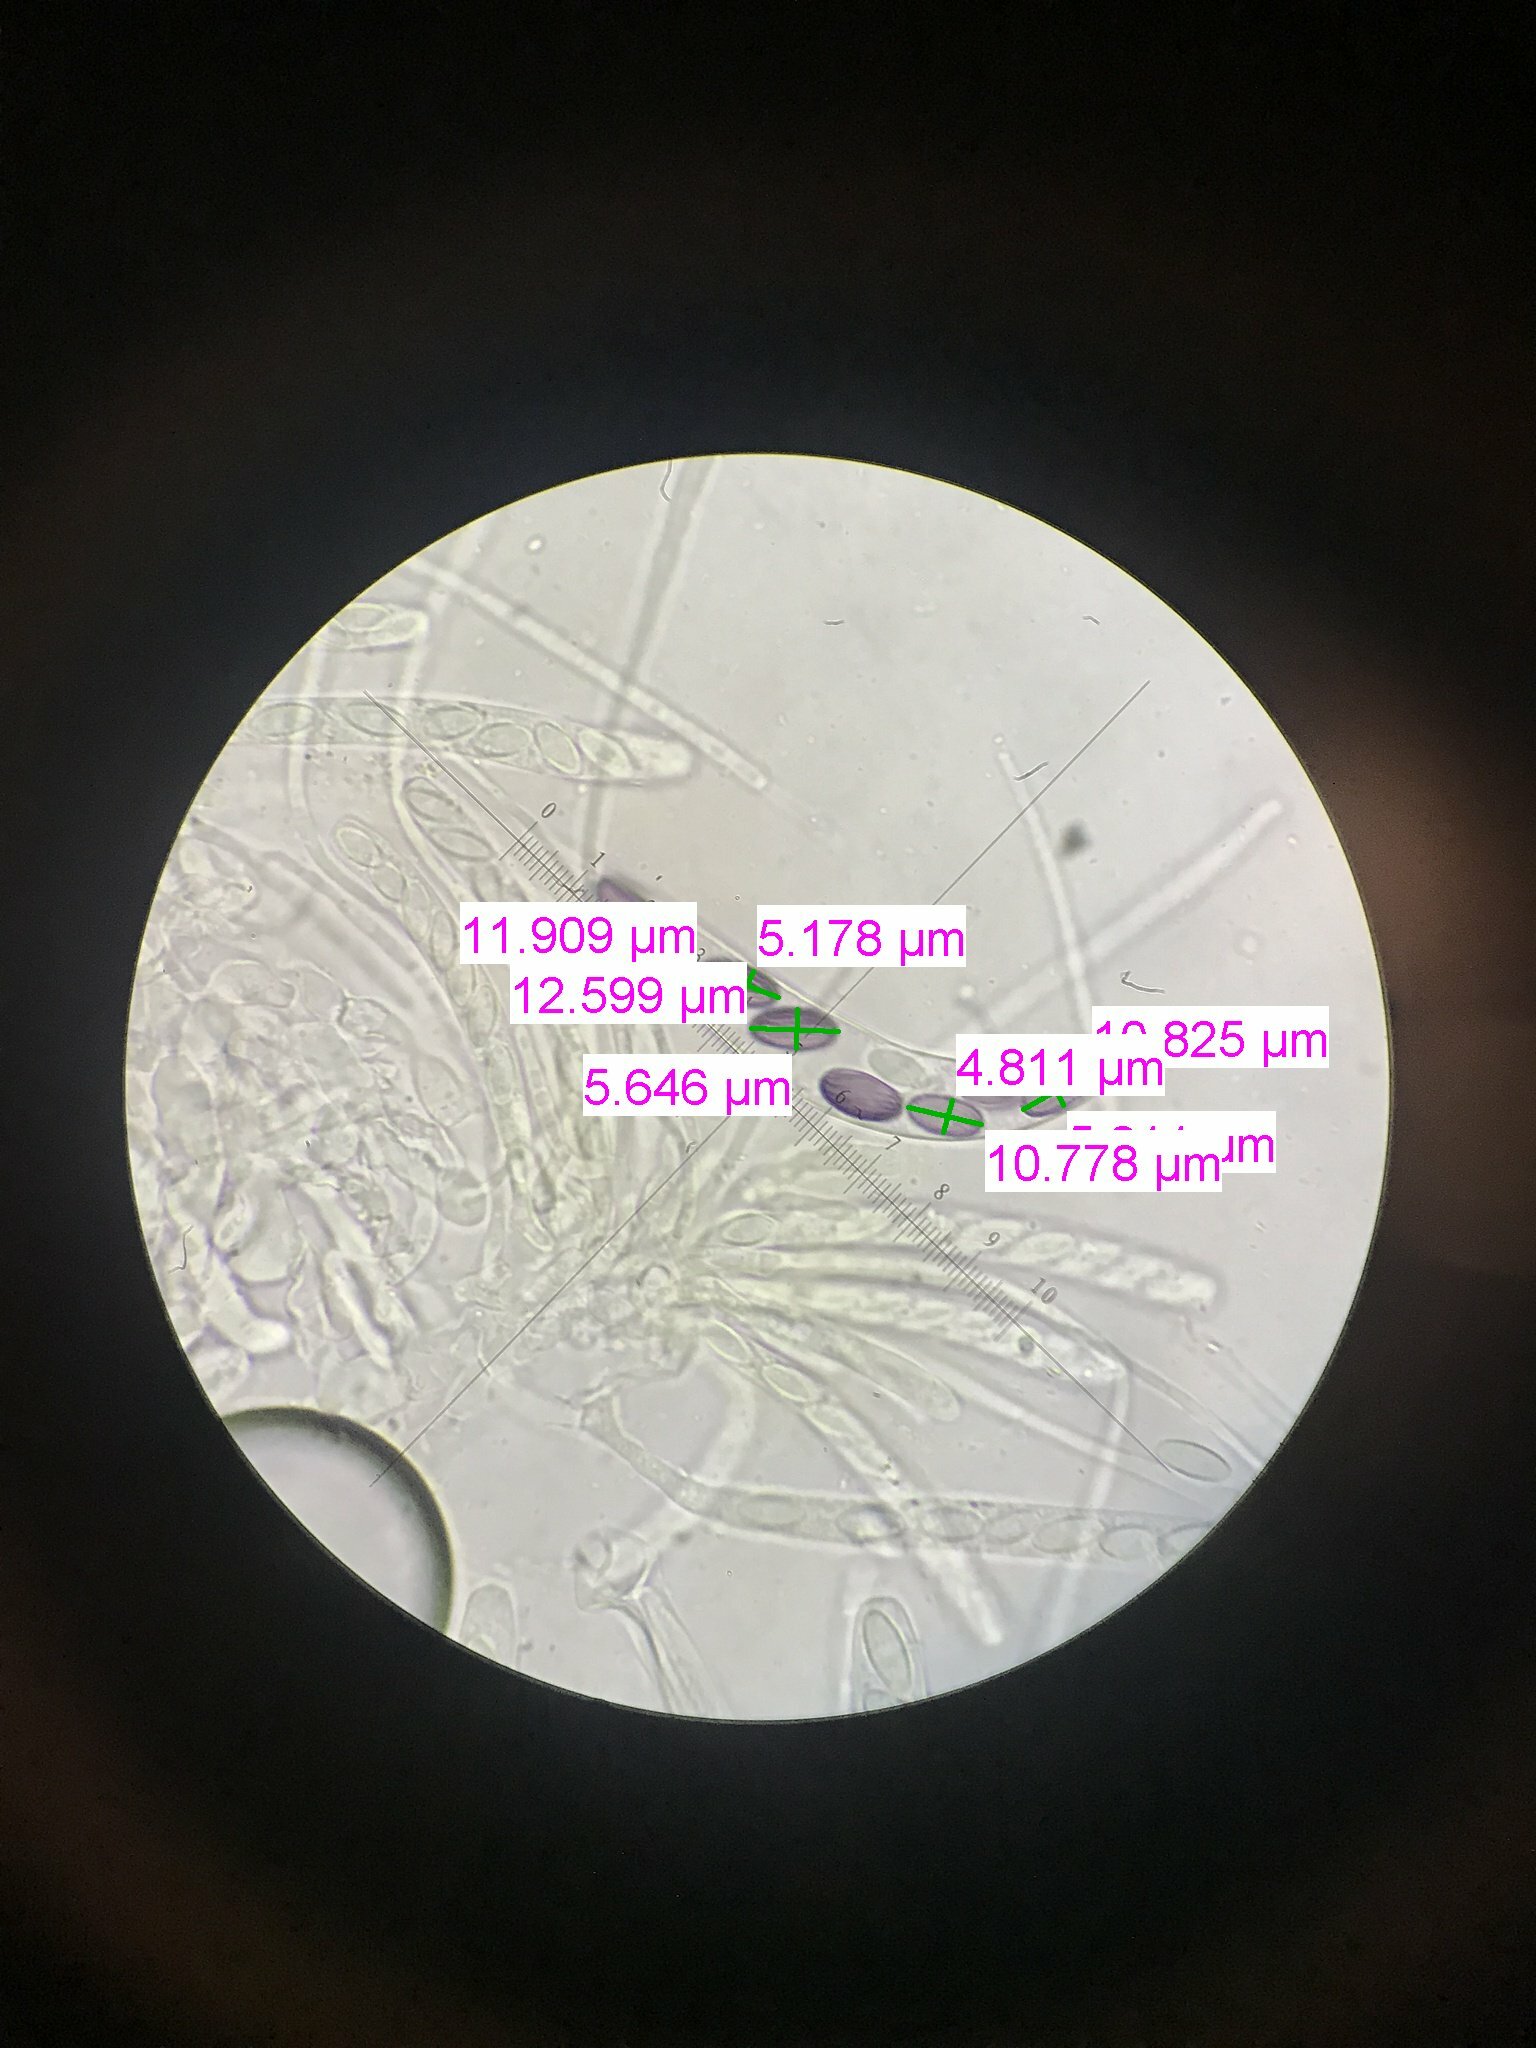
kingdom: Fungi
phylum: Ascomycota
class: Pezizomycetes
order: Pezizales
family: Ascobolaceae
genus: Ascobolus
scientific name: Ascobolus crenulatus
